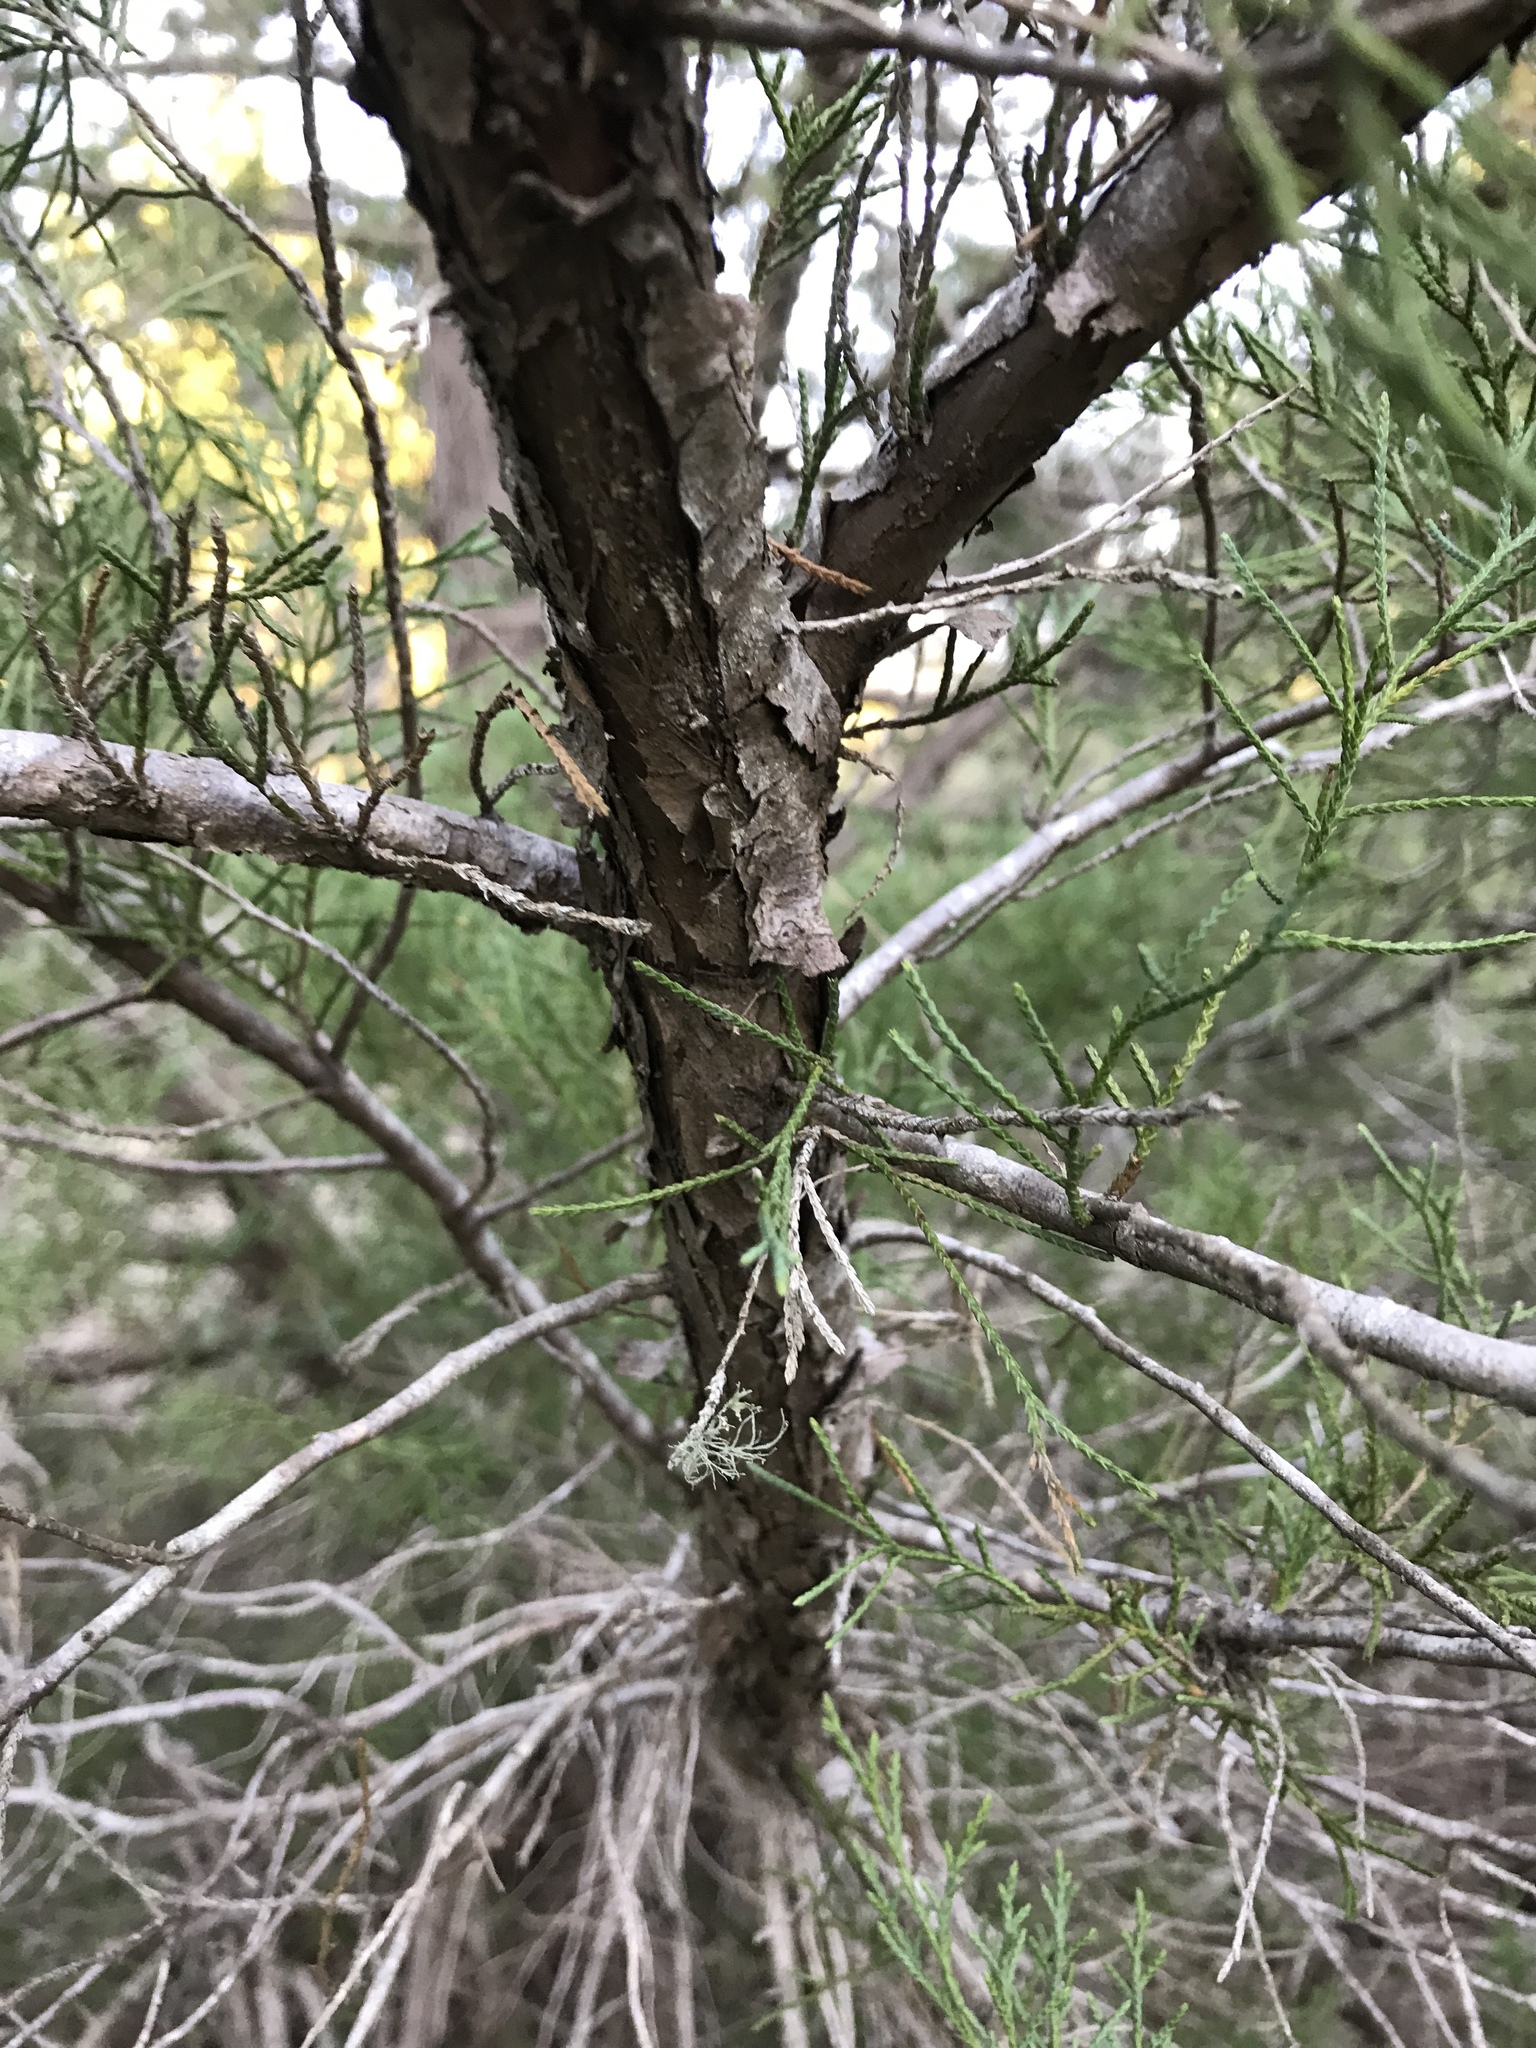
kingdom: Plantae
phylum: Tracheophyta
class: Pinopsida
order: Pinales
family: Cupressaceae
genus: Juniperus
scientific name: Juniperus virginiana
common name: Red juniper
